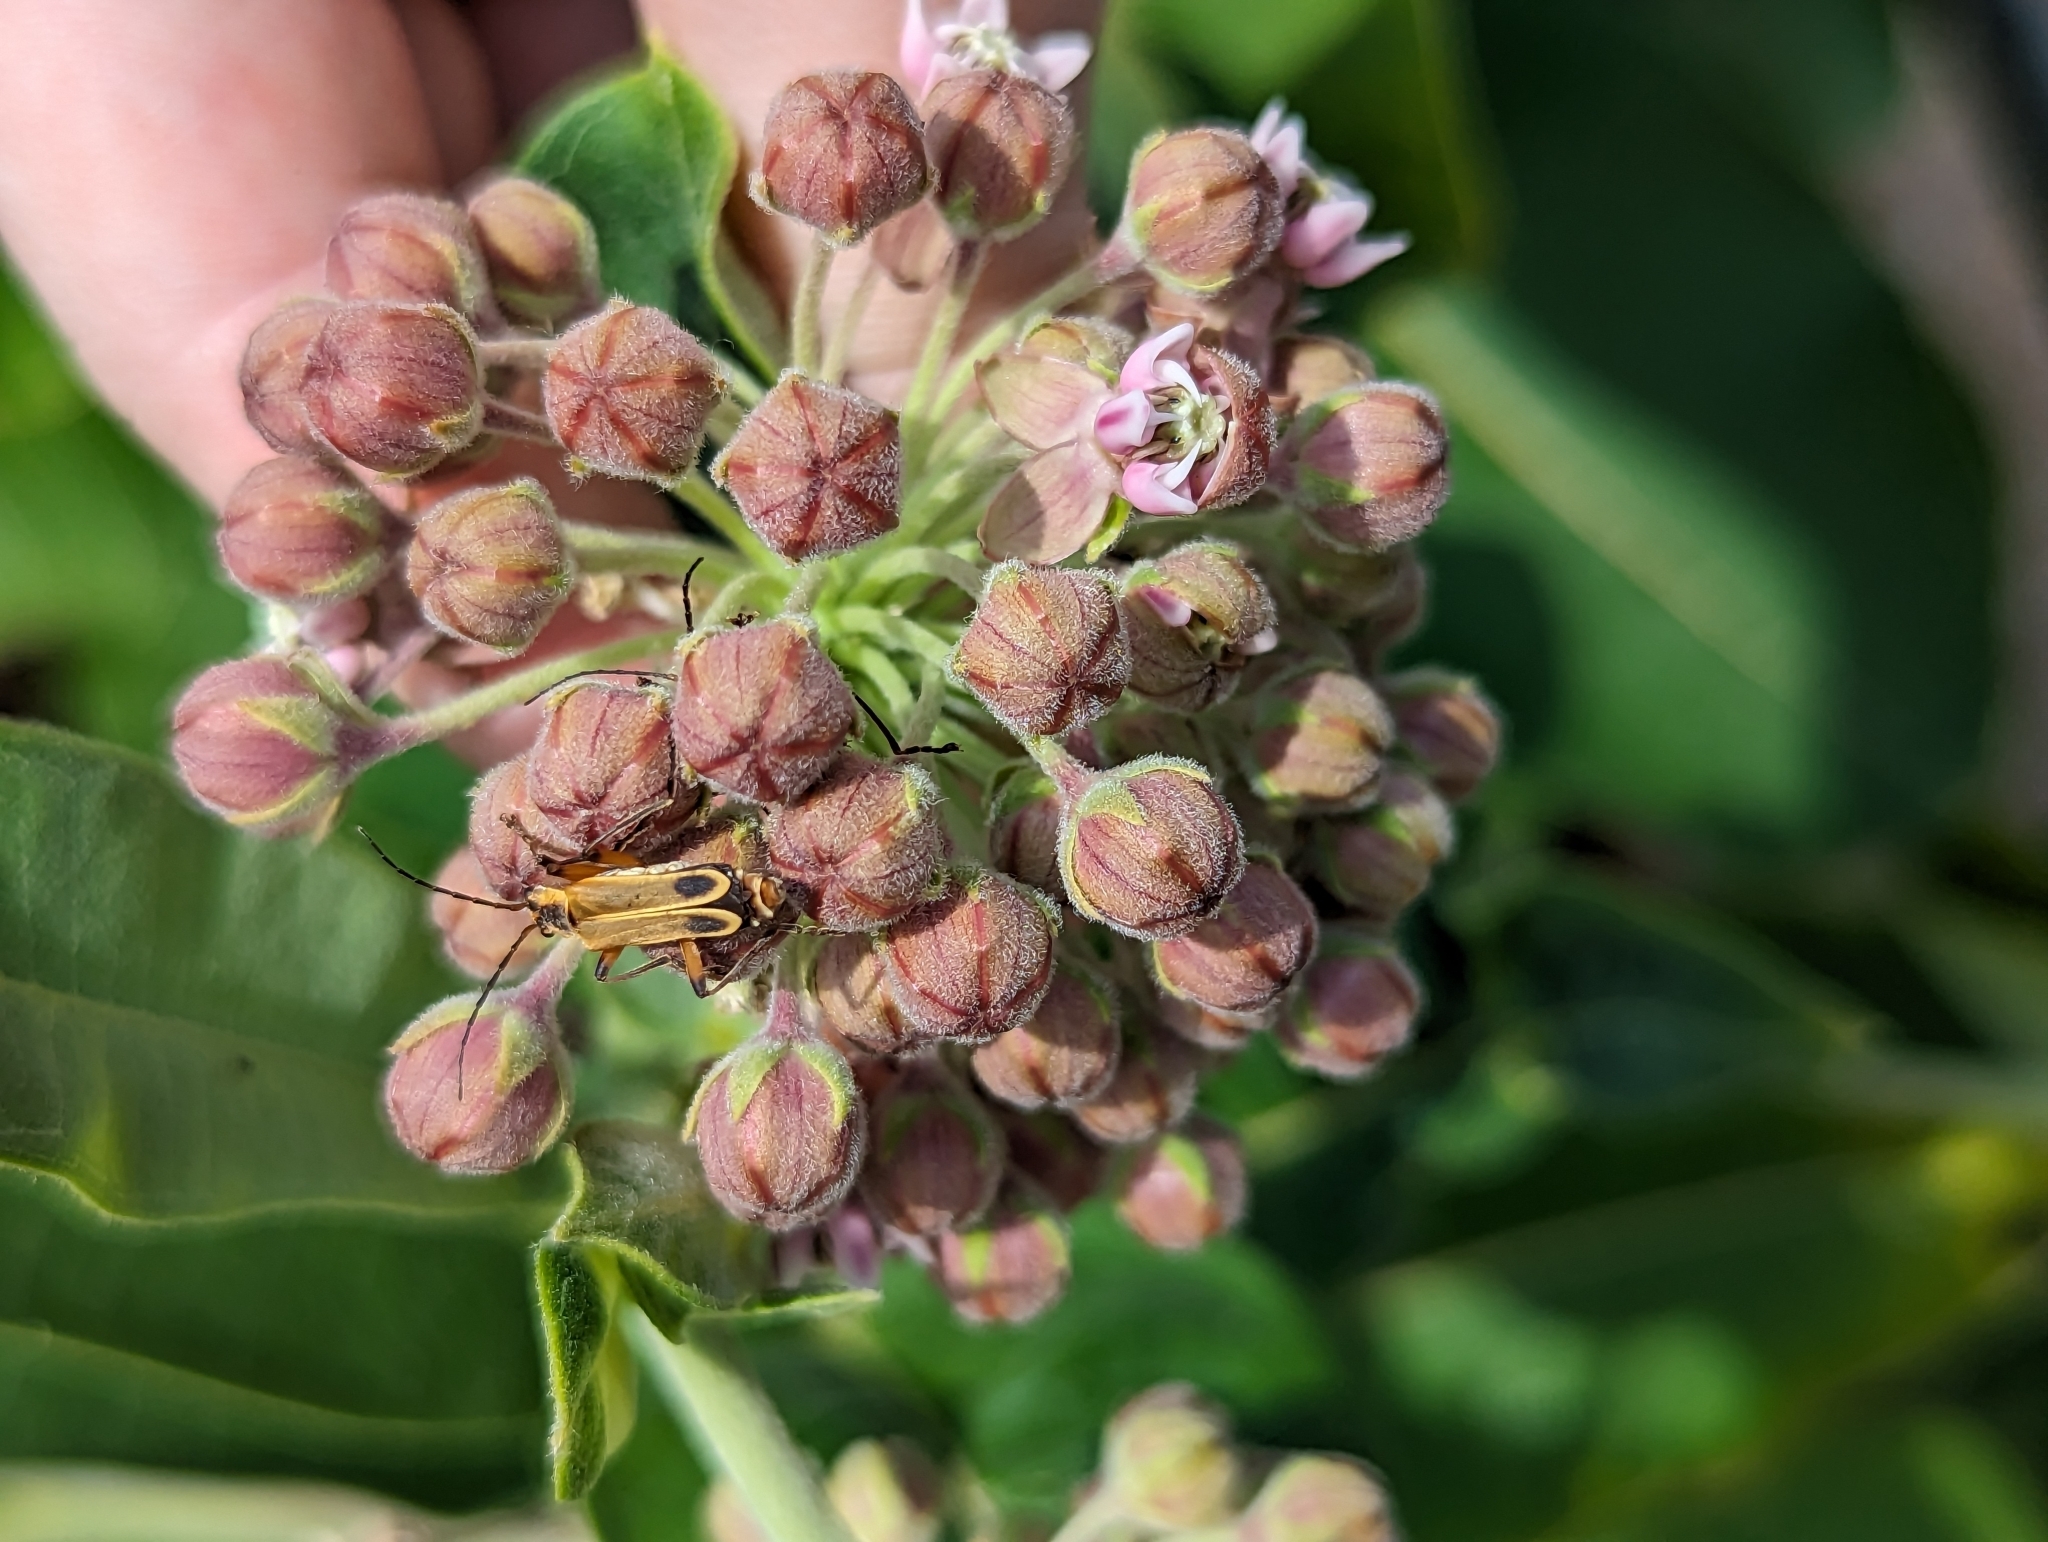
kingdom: Animalia
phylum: Arthropoda
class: Insecta
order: Coleoptera
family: Cantharidae
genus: Chauliognathus
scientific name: Chauliognathus marginatus
